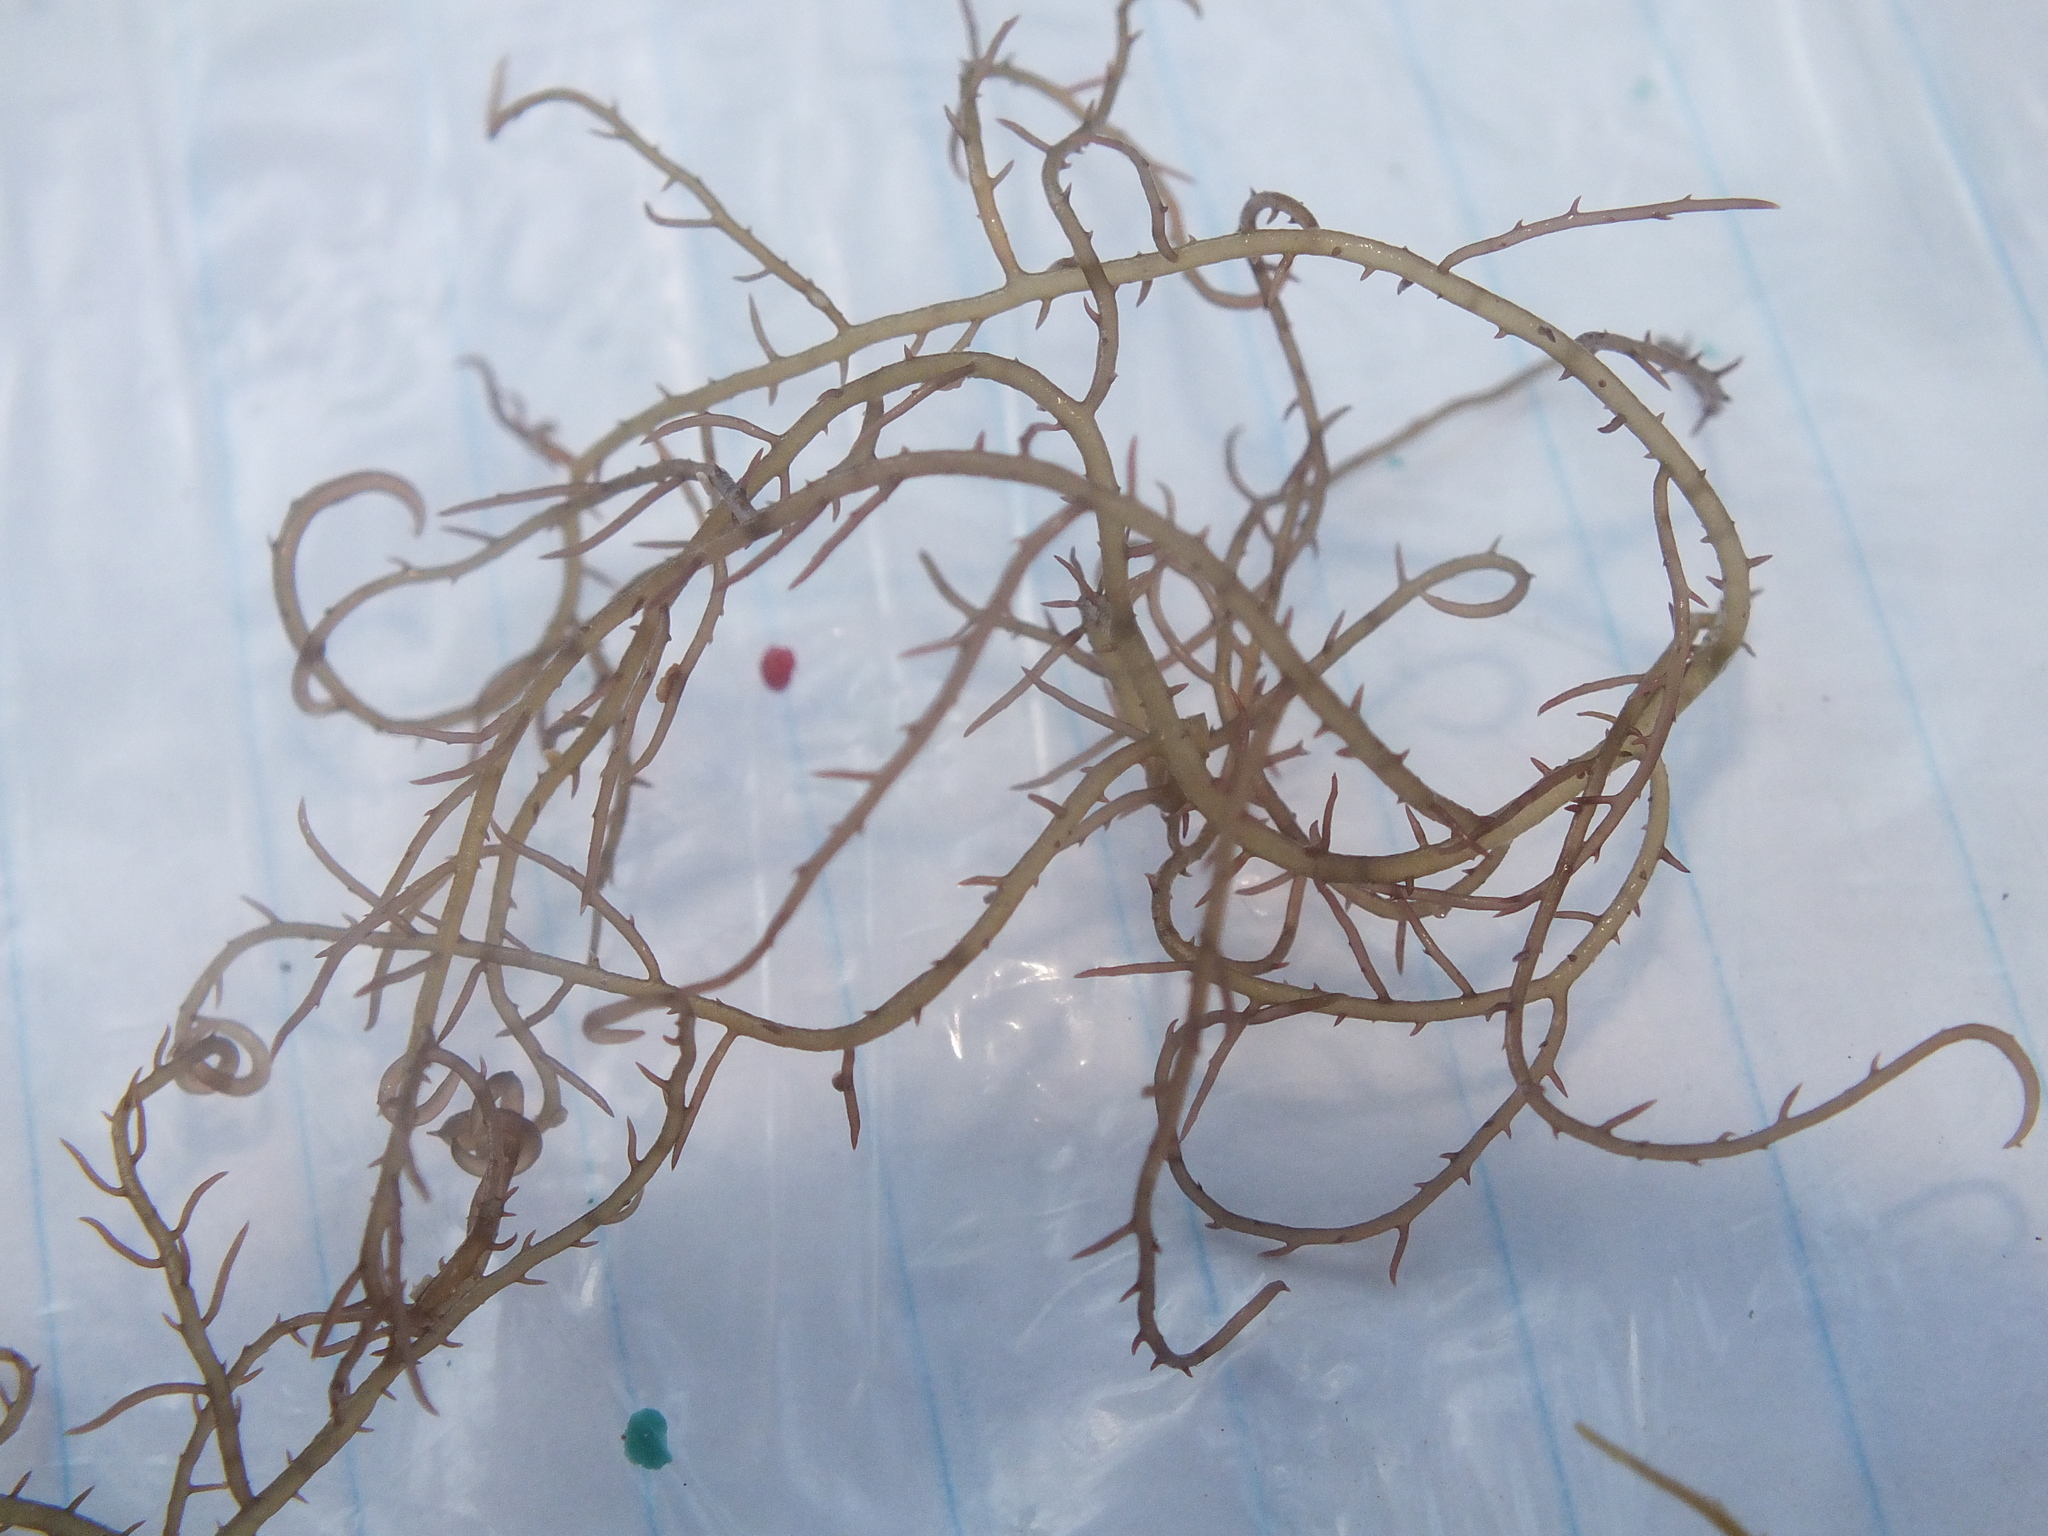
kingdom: Plantae
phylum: Rhodophyta
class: Florideophyceae
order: Gigartinales
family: Cystocloniaceae
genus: Hypnea
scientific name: Hypnea musciformis
